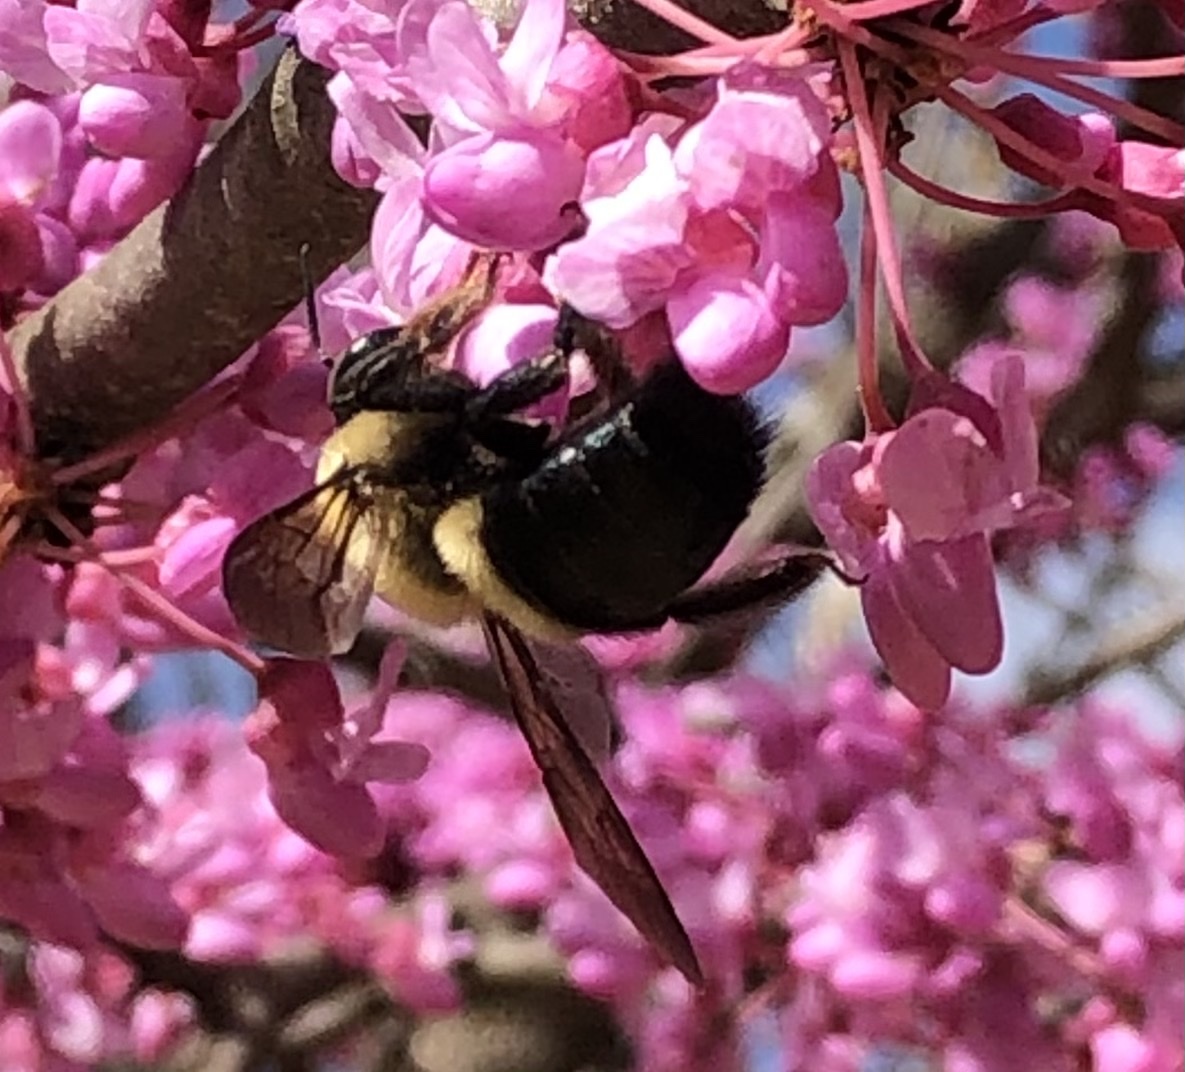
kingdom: Animalia
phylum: Arthropoda
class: Insecta
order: Hymenoptera
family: Apidae
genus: Xylocopa
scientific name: Xylocopa virginica
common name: Carpenter bee
